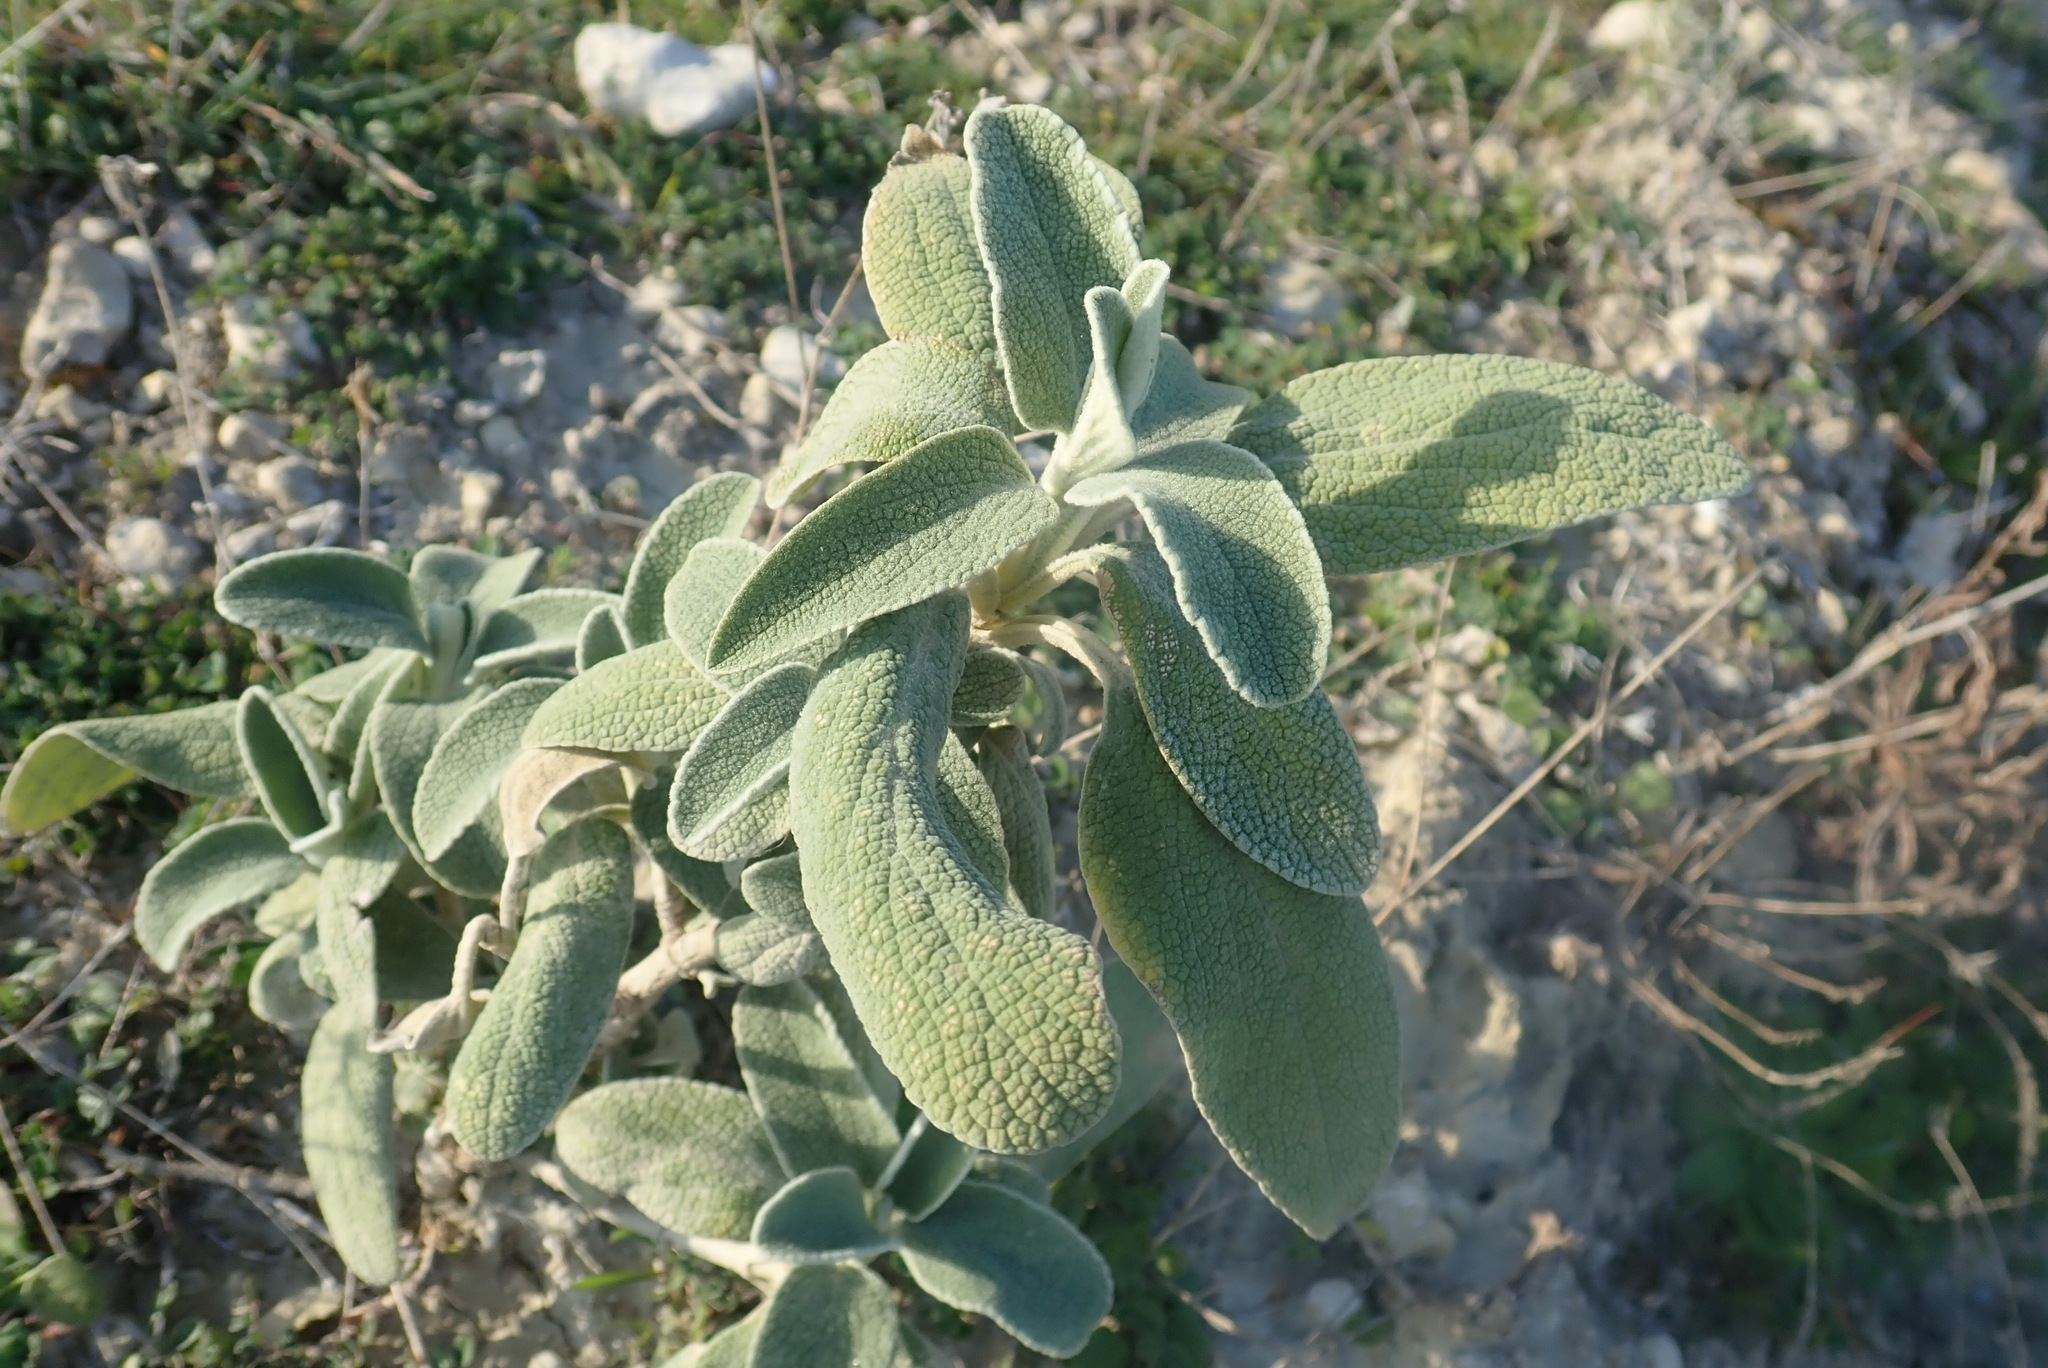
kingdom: Plantae
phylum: Tracheophyta
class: Magnoliopsida
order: Lamiales
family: Lamiaceae
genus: Phlomis
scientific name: Phlomis fruticosa
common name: Jerusalem sage
